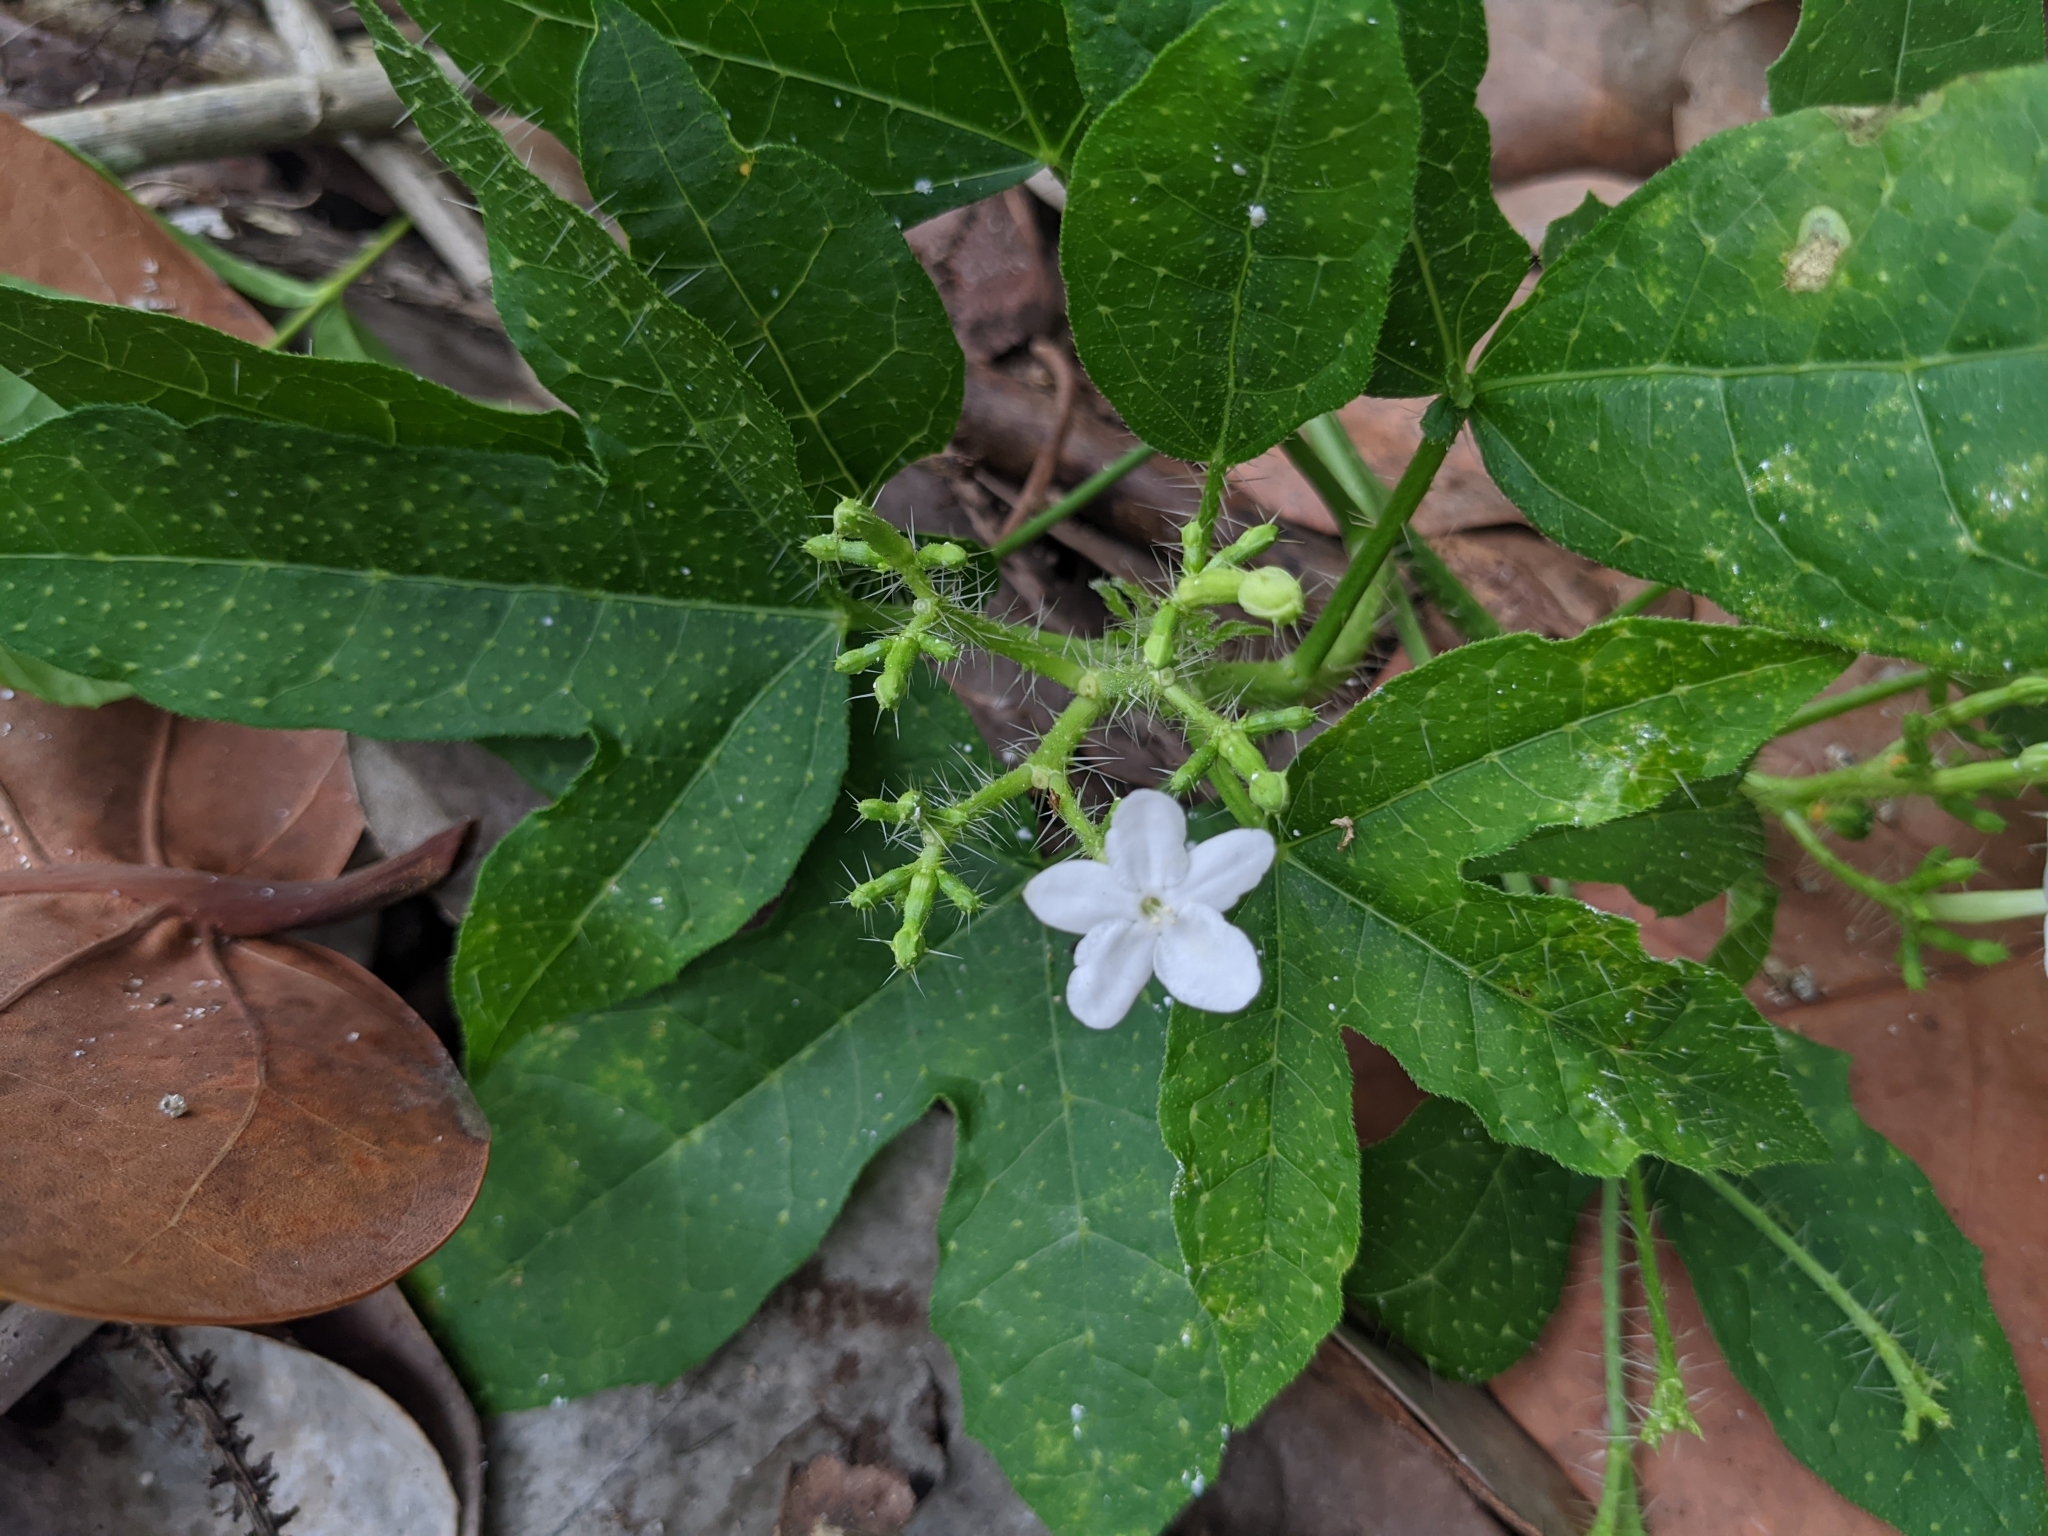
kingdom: Plantae
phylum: Tracheophyta
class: Magnoliopsida
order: Malpighiales
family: Euphorbiaceae
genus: Cnidoscolus
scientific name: Cnidoscolus stimulosus
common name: Bull-nettle
